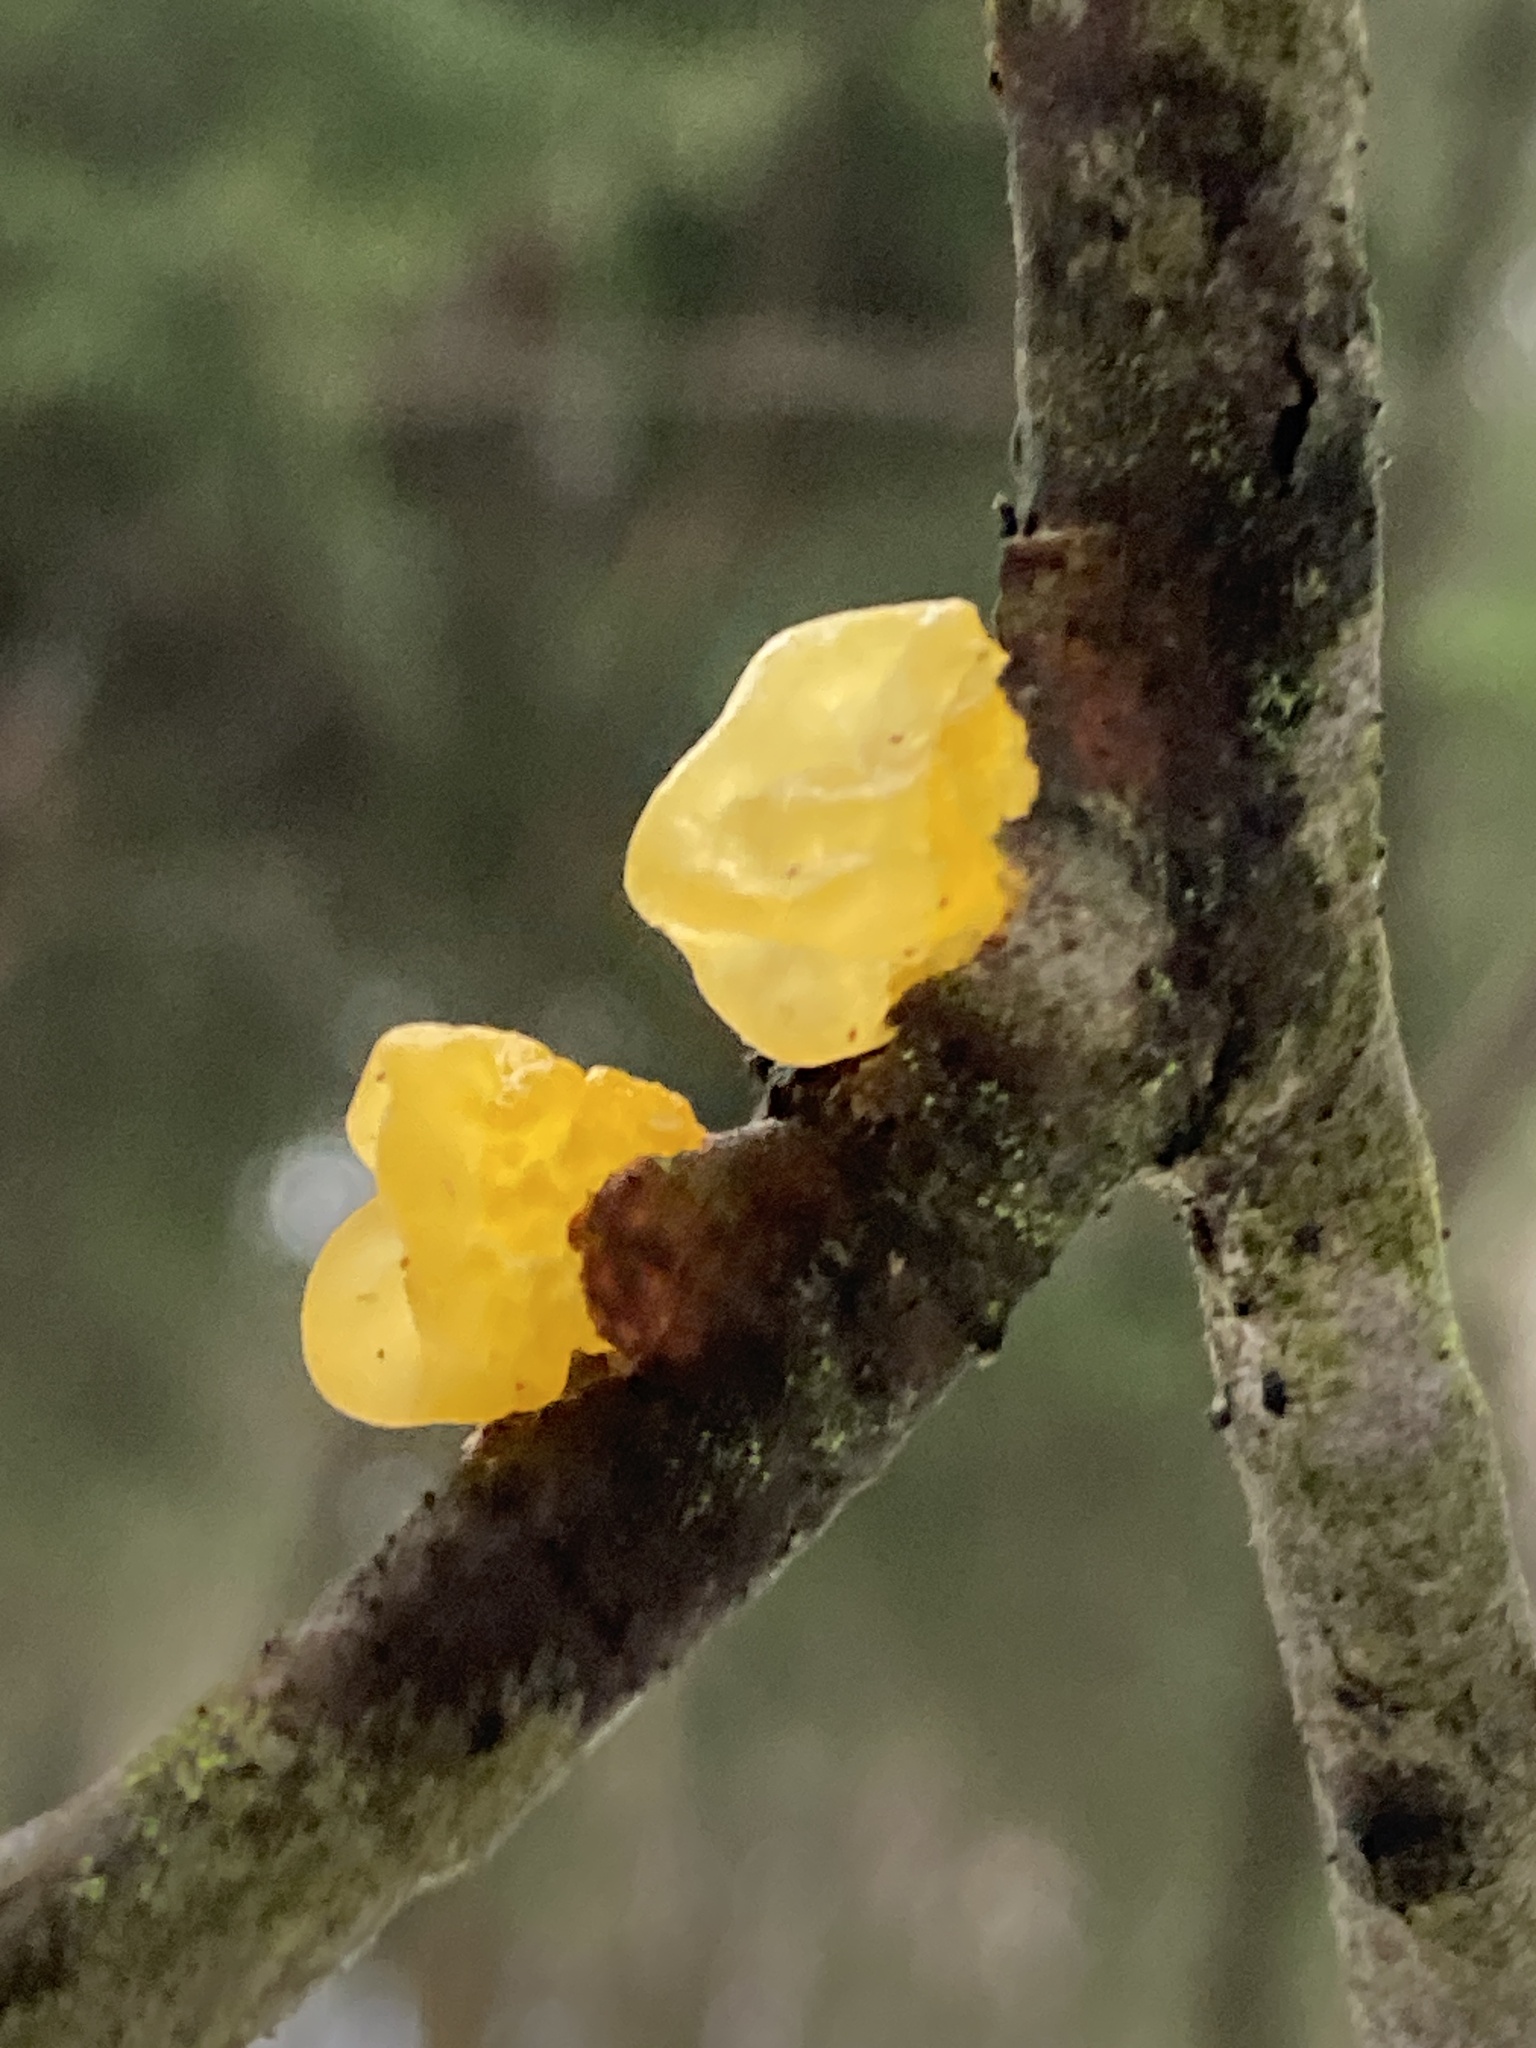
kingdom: Fungi
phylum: Basidiomycota
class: Tremellomycetes
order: Tremellales
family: Tremellaceae
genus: Tremella
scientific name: Tremella mesenterica
